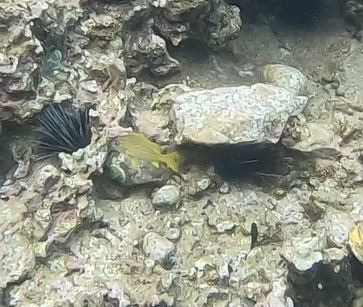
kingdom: Animalia
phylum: Chordata
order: Perciformes
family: Haemulidae
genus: Haemulon
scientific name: Haemulon flavolineatum
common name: French grunt
